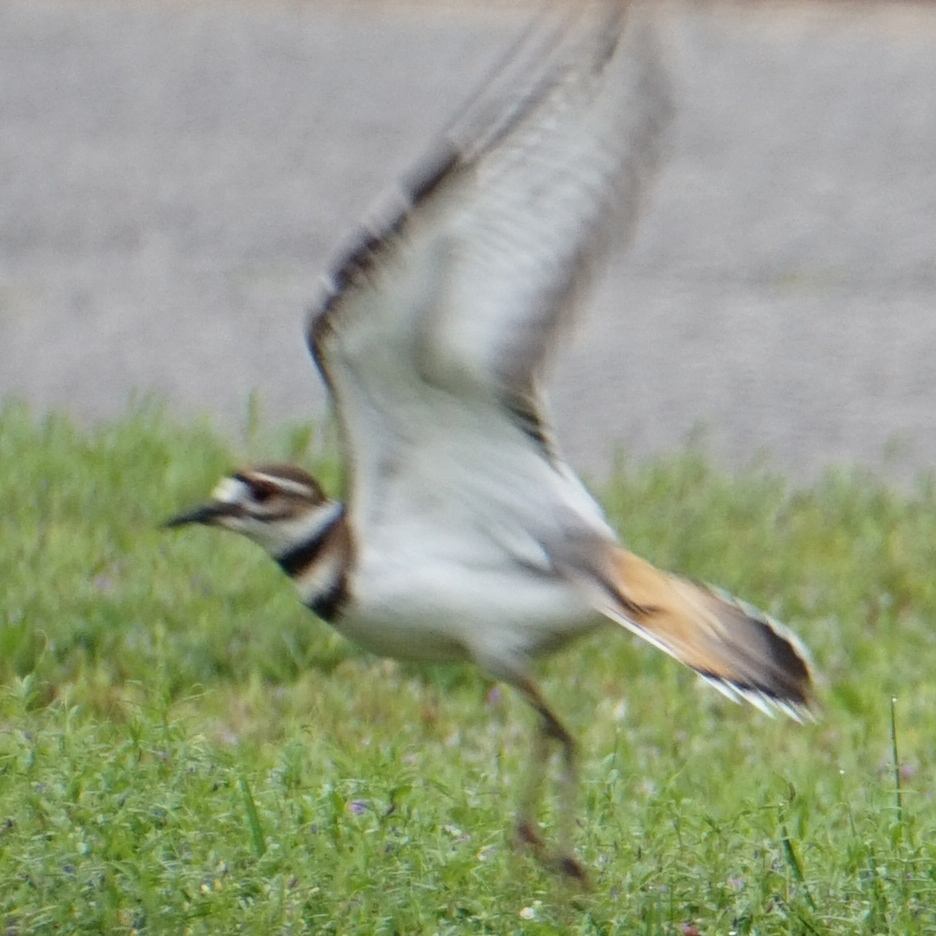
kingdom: Animalia
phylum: Chordata
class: Aves
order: Charadriiformes
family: Charadriidae
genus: Charadrius
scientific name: Charadrius vociferus
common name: Killdeer
